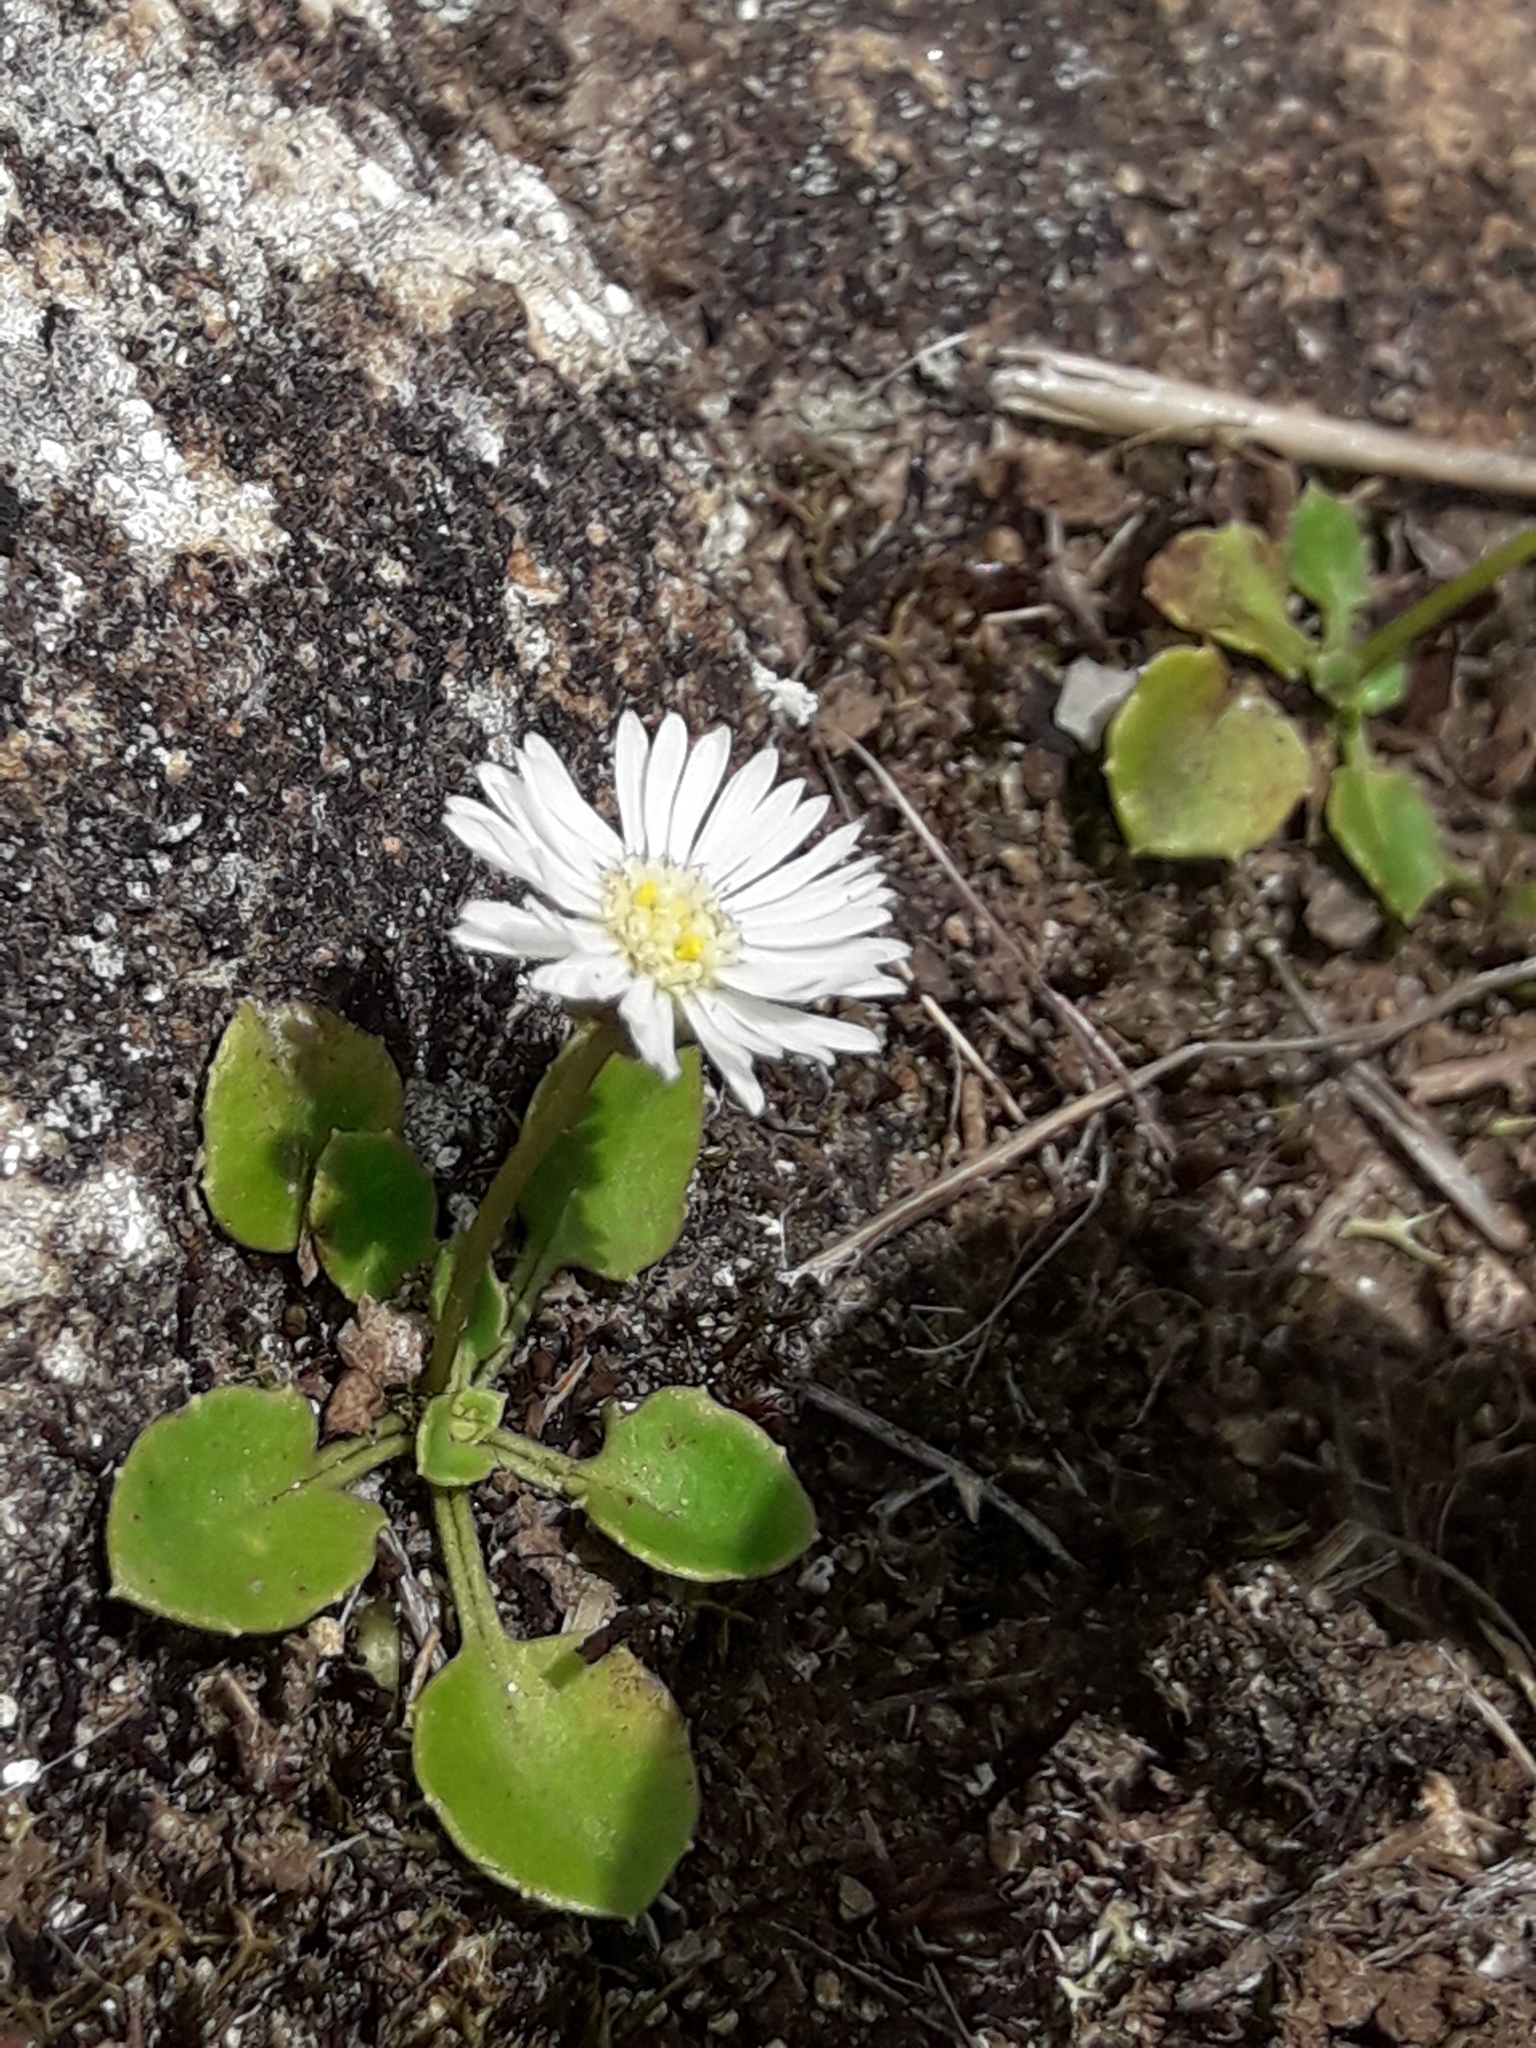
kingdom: Plantae
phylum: Tracheophyta
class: Magnoliopsida
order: Asterales
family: Asteraceae
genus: Lagenophora
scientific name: Lagenophora pumila
